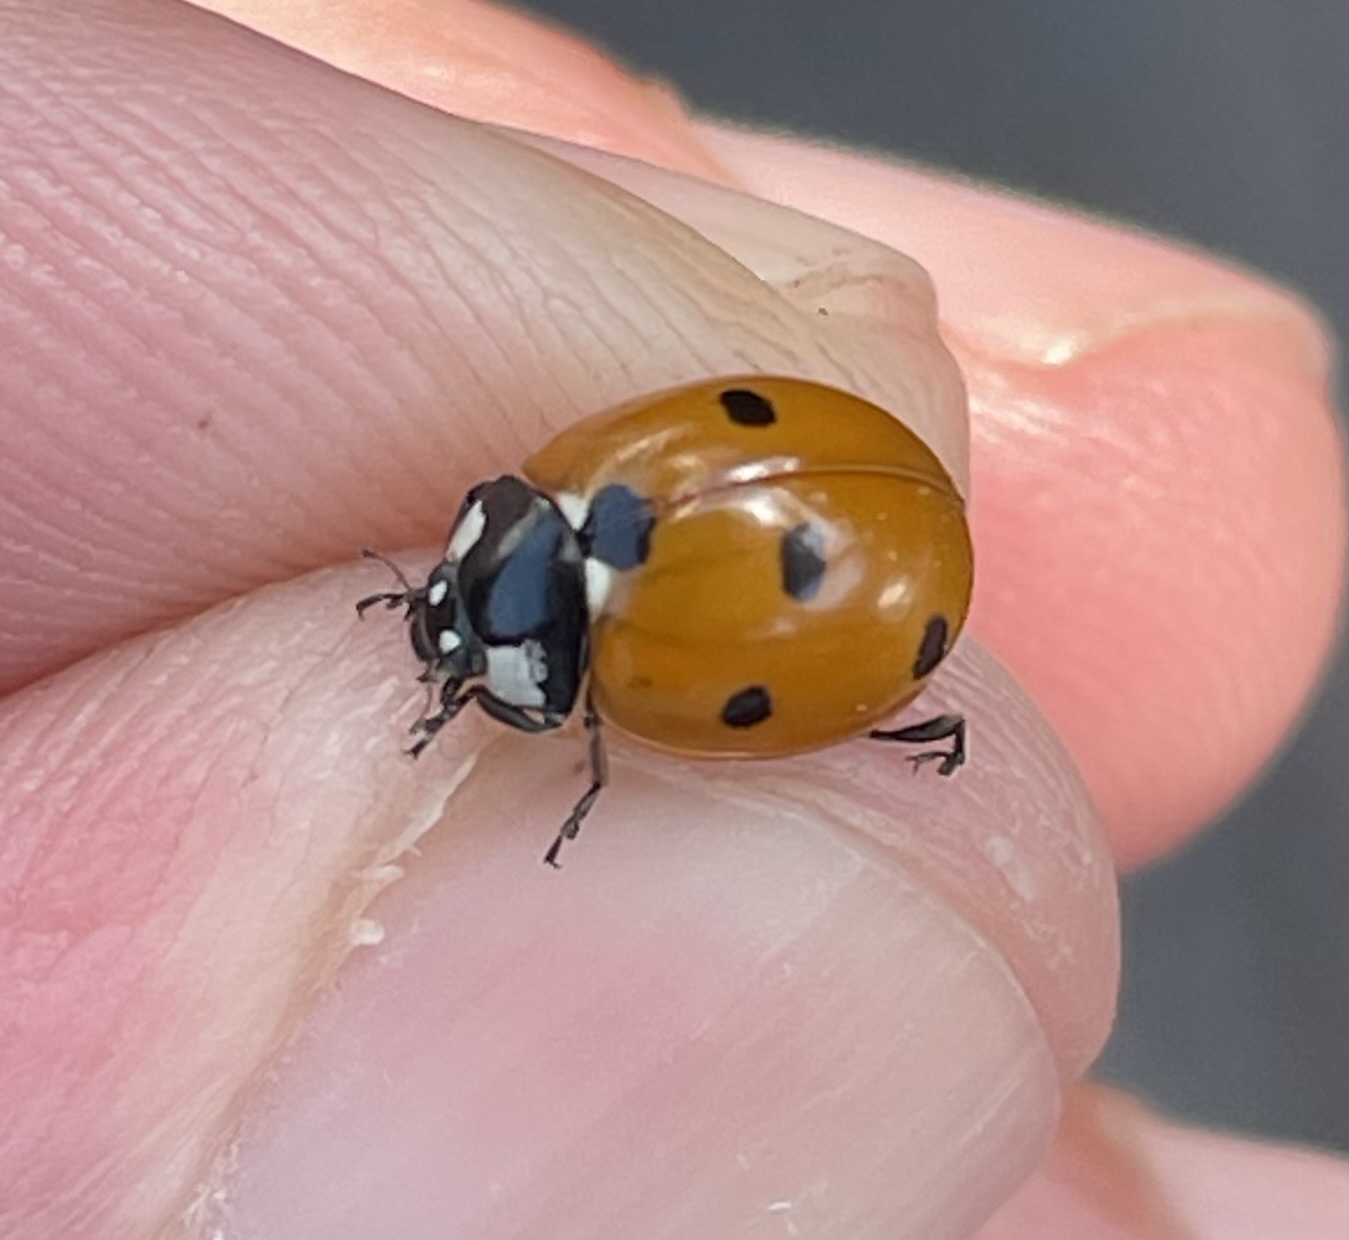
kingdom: Animalia
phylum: Arthropoda
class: Insecta
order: Coleoptera
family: Coccinellidae
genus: Coccinella
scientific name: Coccinella septempunctata
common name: Sevenspotted lady beetle
